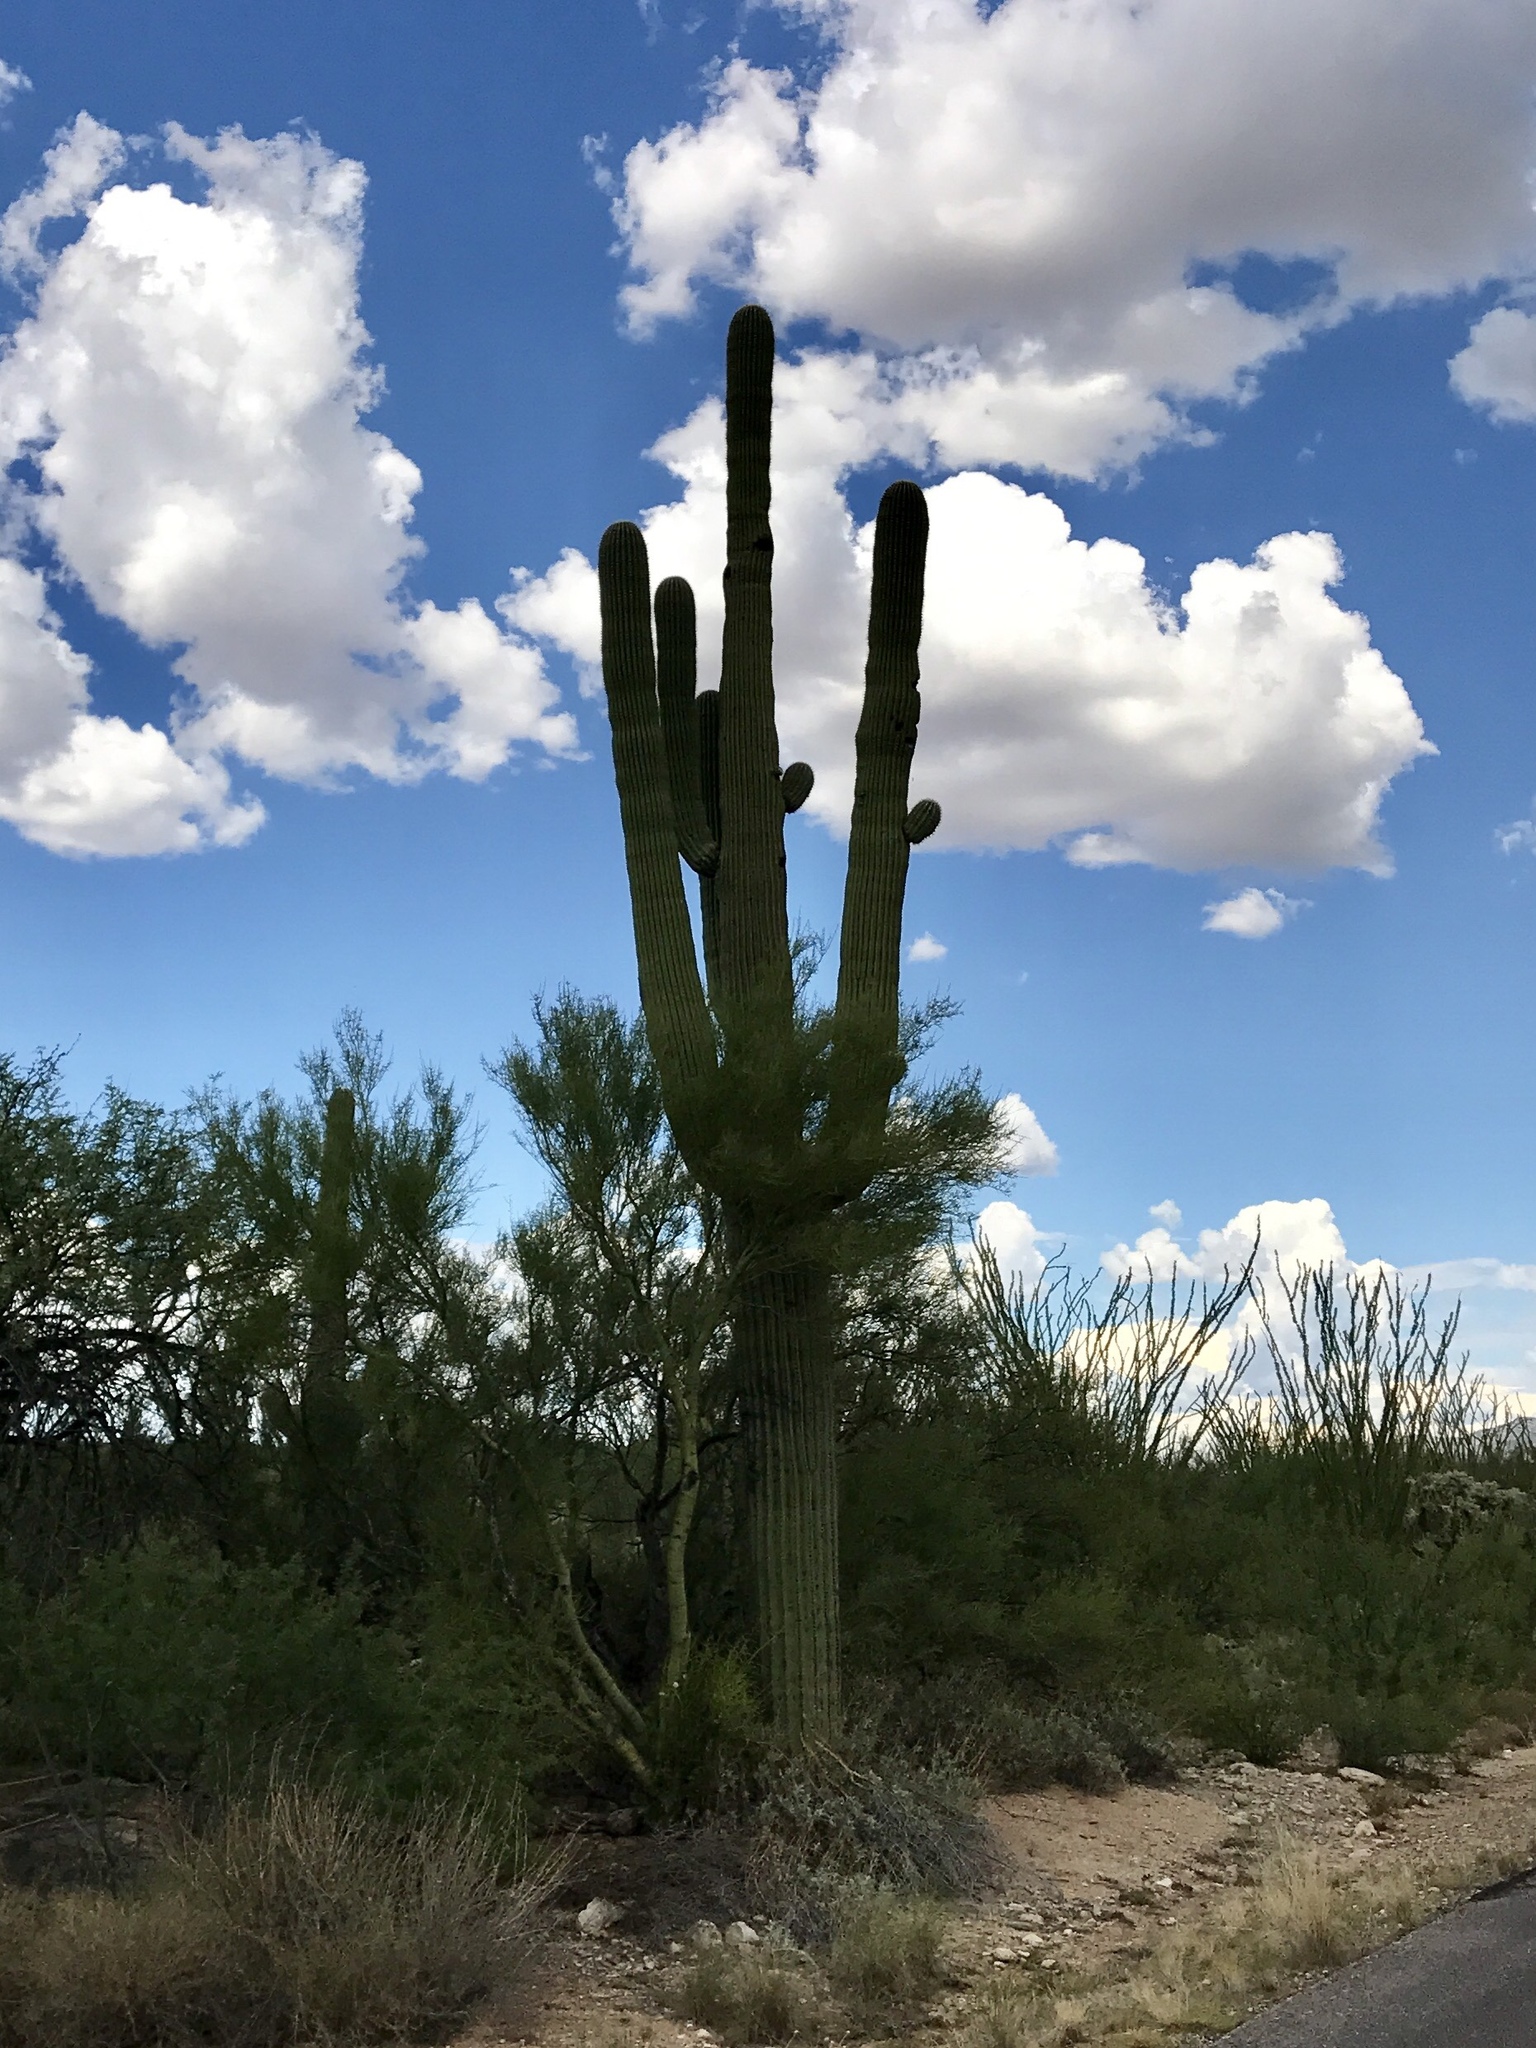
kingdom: Plantae
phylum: Tracheophyta
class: Magnoliopsida
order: Caryophyllales
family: Cactaceae
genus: Carnegiea
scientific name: Carnegiea gigantea
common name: Saguaro
